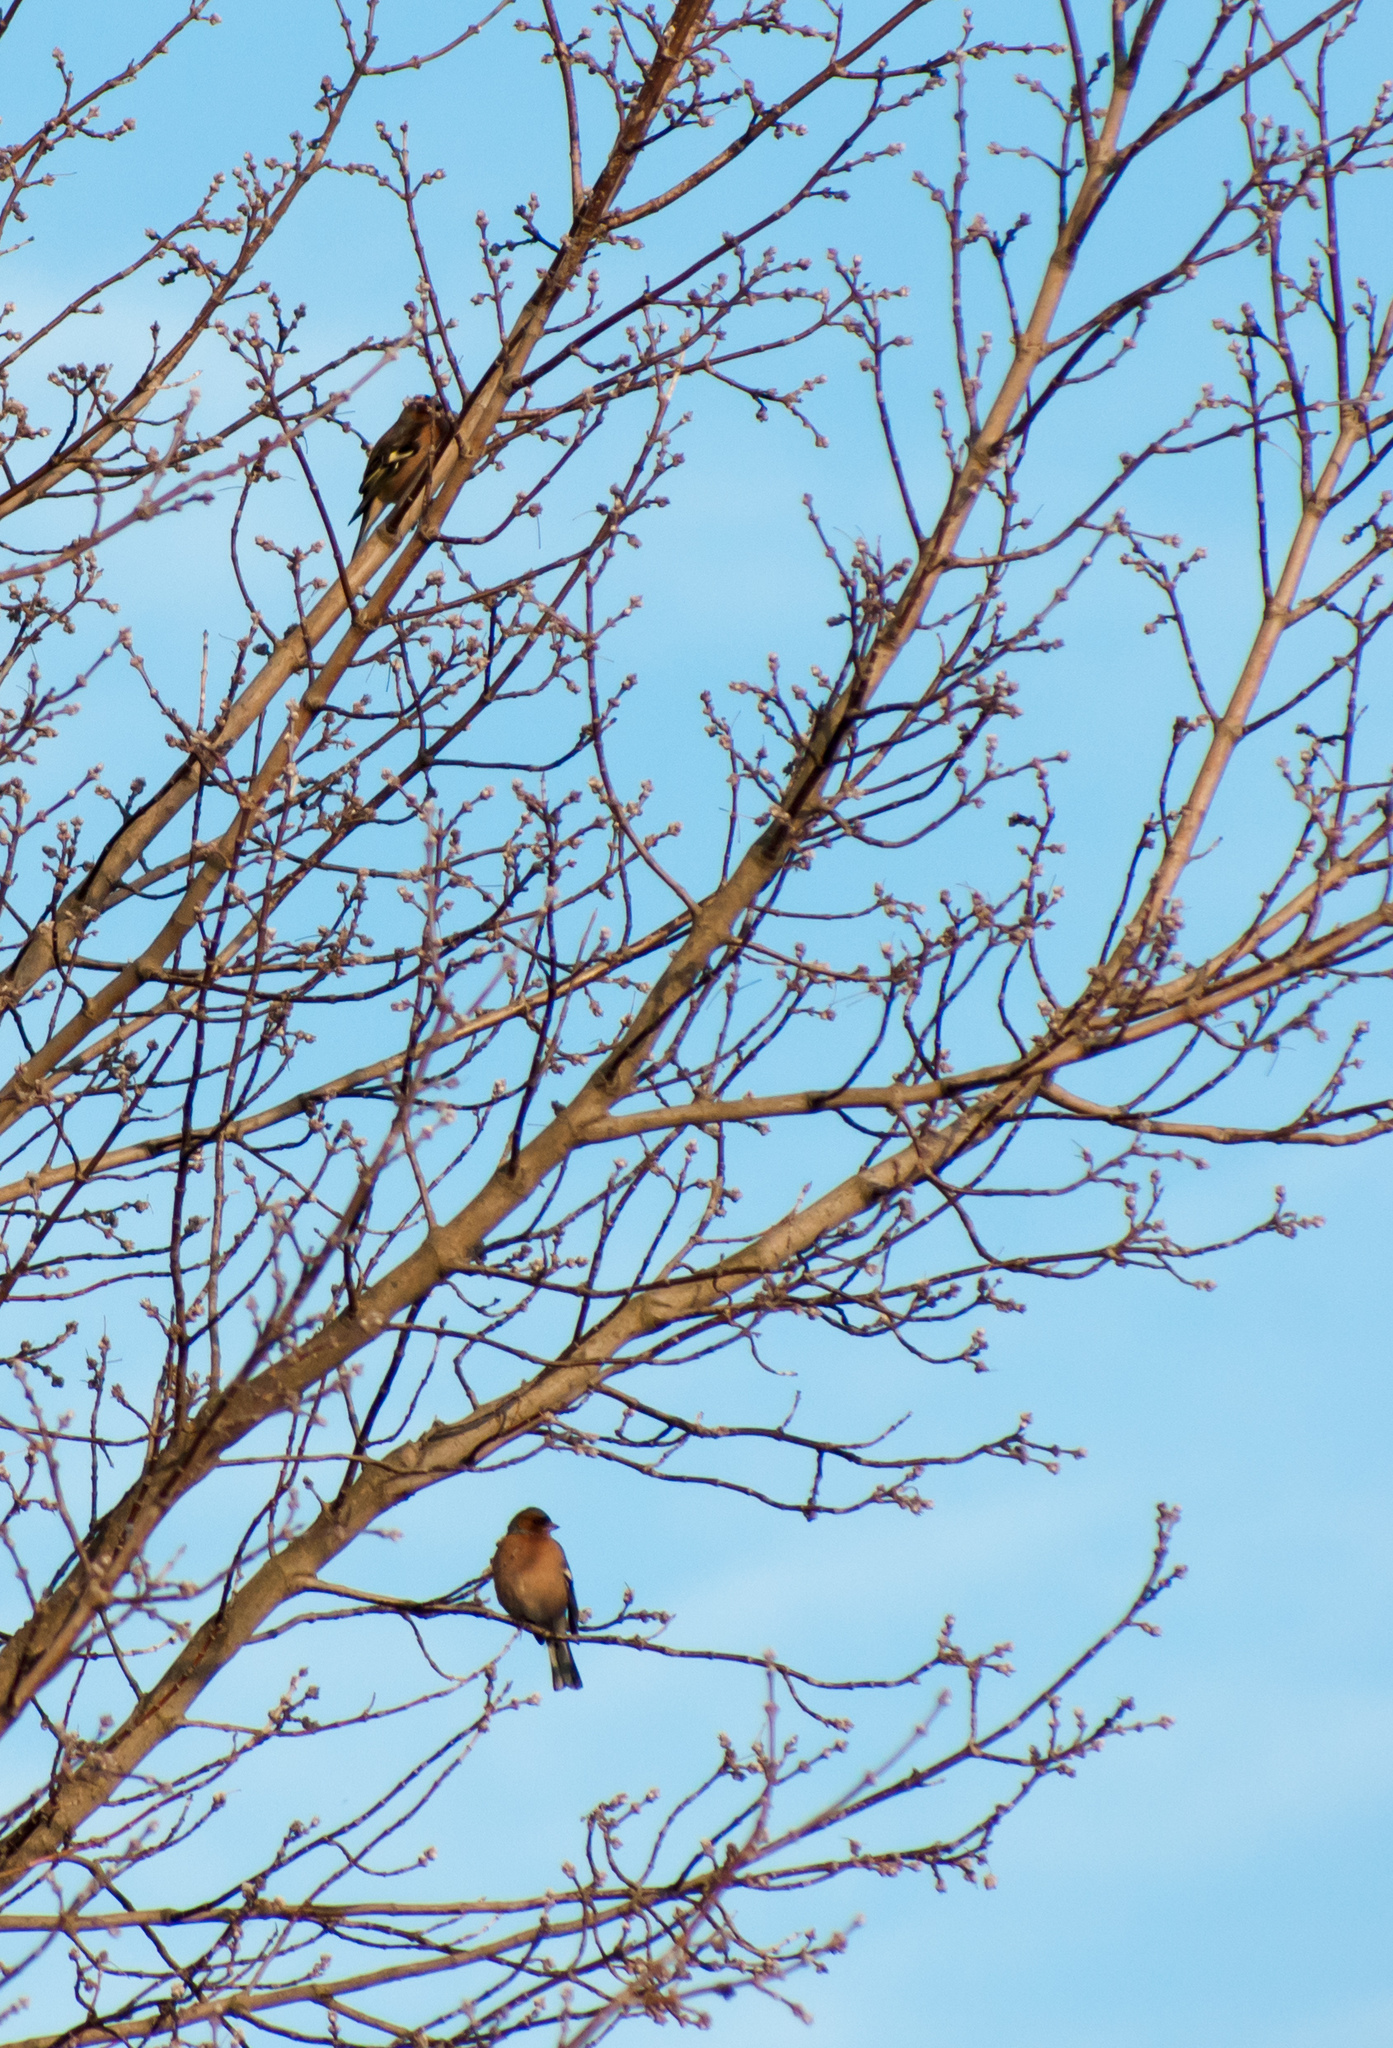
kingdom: Animalia
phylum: Chordata
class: Aves
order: Passeriformes
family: Fringillidae
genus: Fringilla
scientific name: Fringilla coelebs
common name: Common chaffinch
